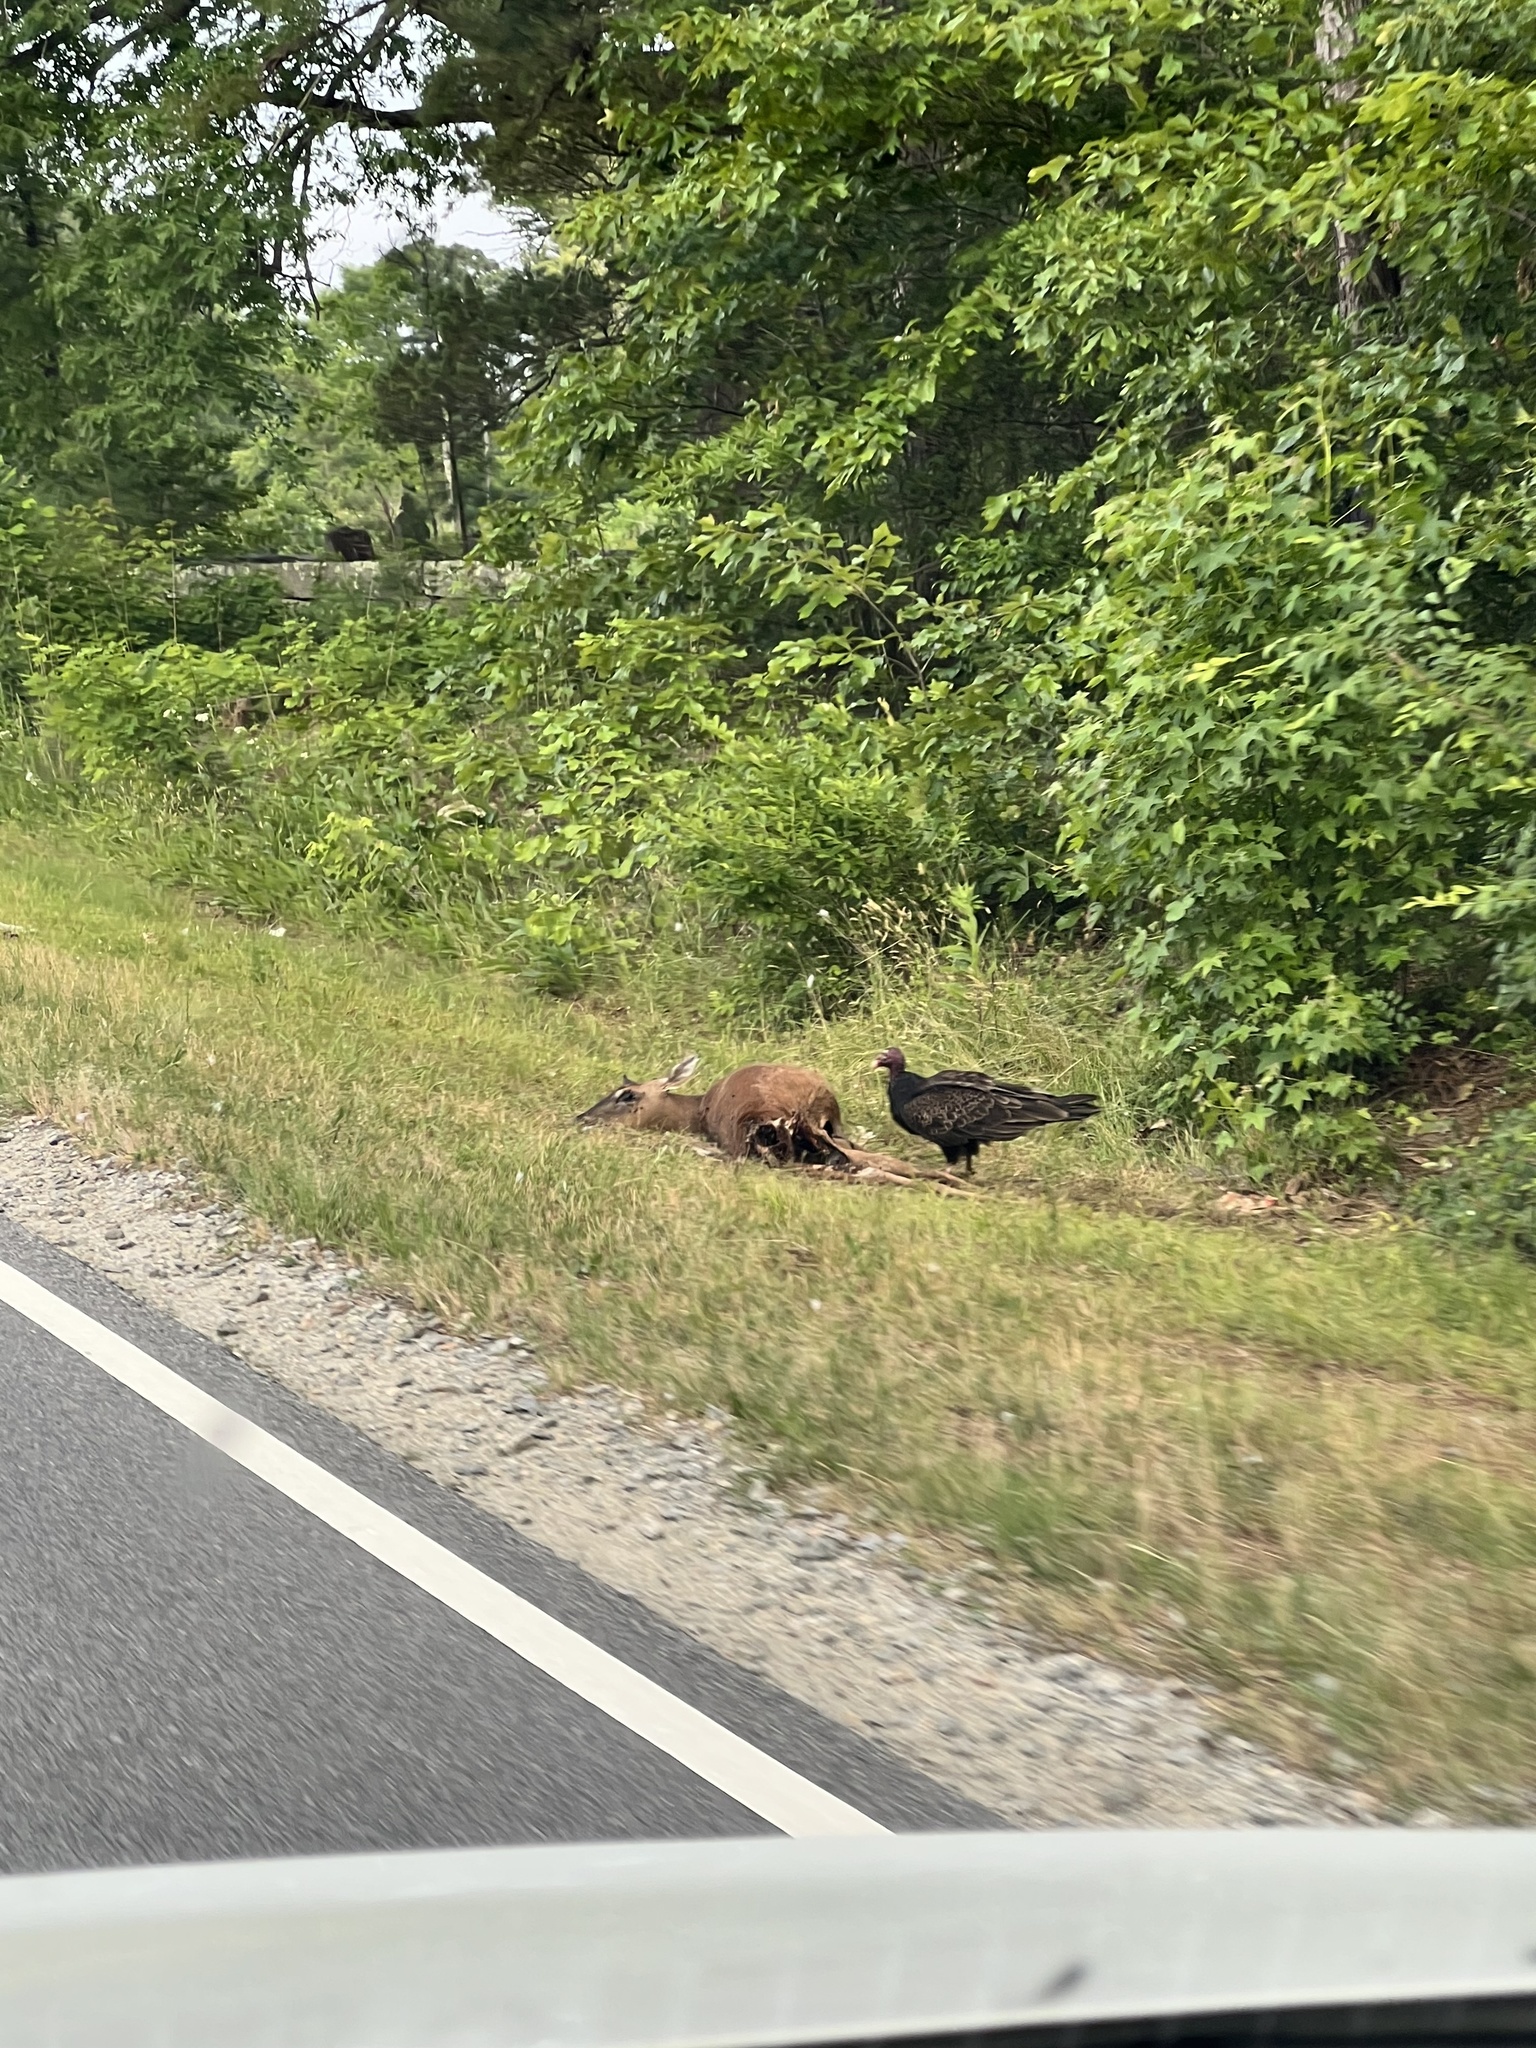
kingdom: Animalia
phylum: Chordata
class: Mammalia
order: Artiodactyla
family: Cervidae
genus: Odocoileus
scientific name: Odocoileus virginianus
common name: White-tailed deer
